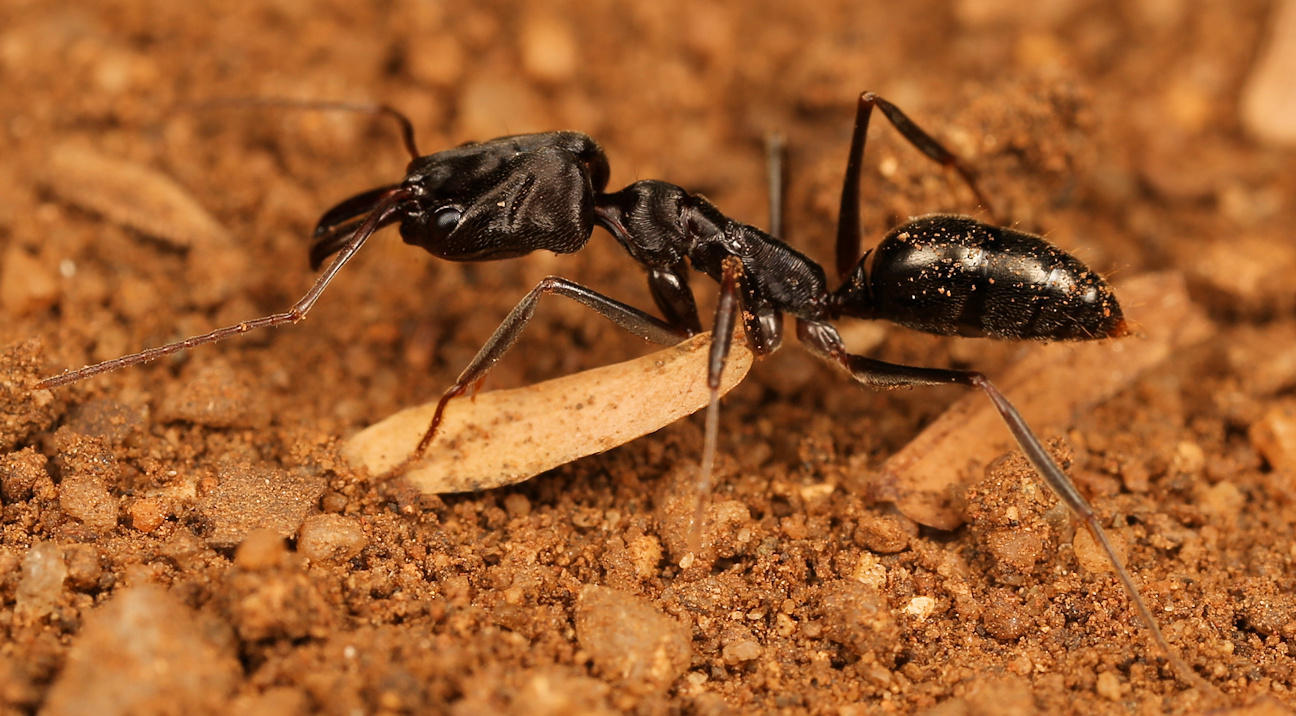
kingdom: Animalia
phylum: Arthropoda
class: Insecta
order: Hymenoptera
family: Formicidae
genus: Odontomachus
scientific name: Odontomachus troglodytes
